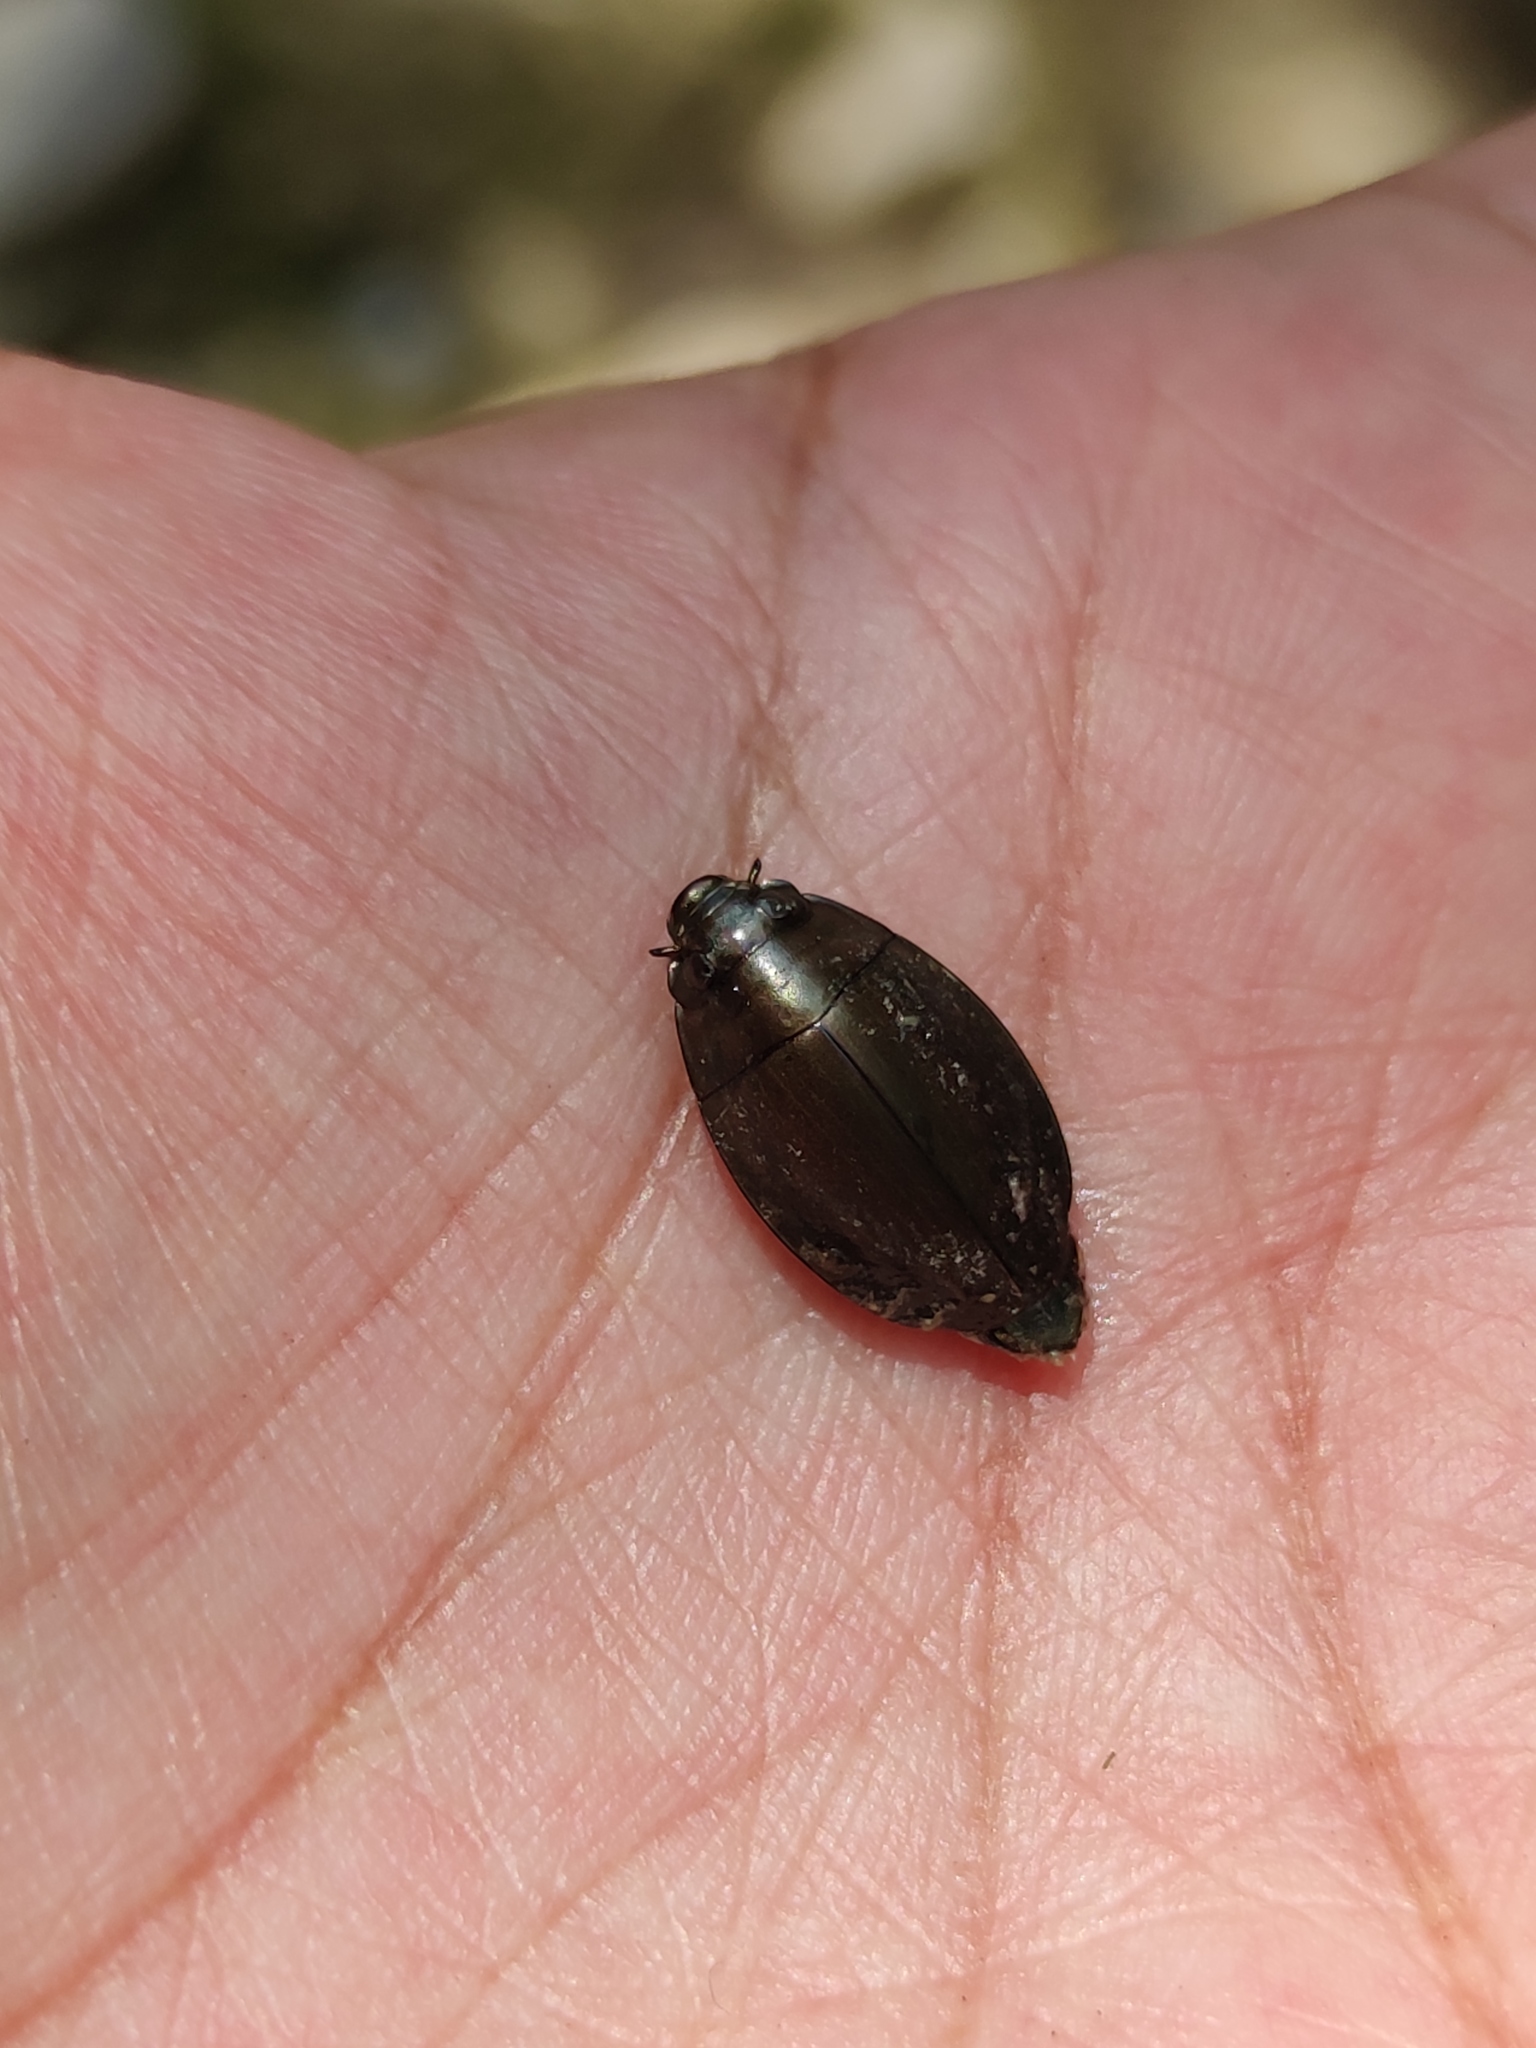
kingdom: Animalia
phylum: Arthropoda
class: Insecta
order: Coleoptera
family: Gyrinidae
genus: Dineutus
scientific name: Dineutus
